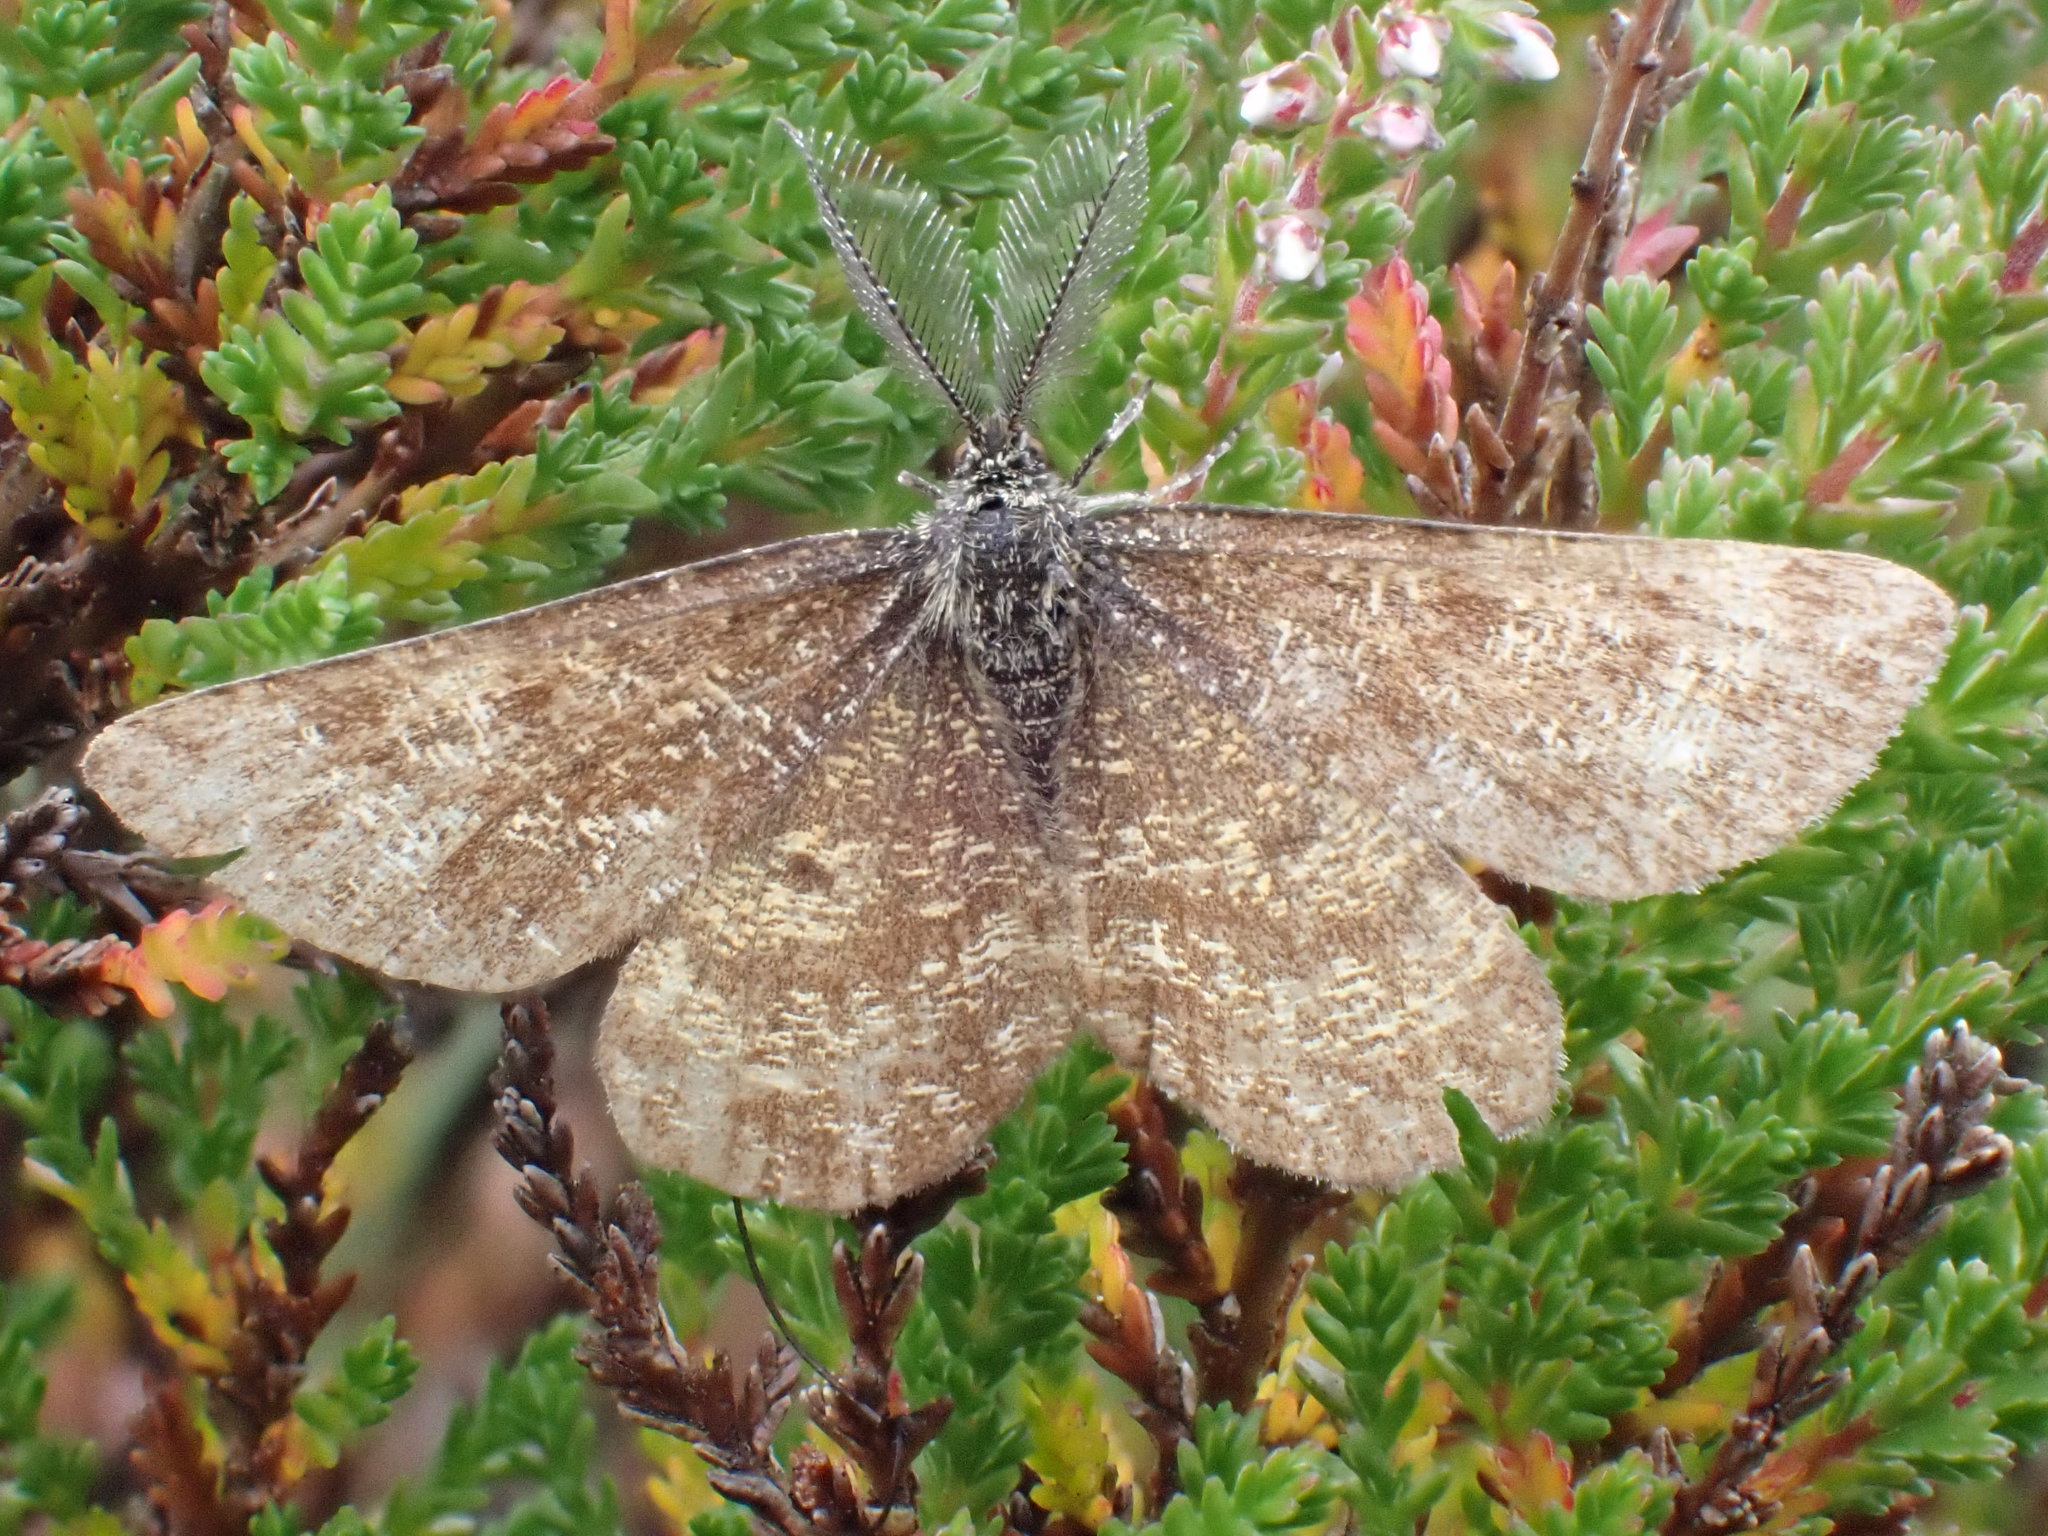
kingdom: Animalia
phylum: Arthropoda
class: Insecta
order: Lepidoptera
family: Geometridae
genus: Ematurga
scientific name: Ematurga atomaria
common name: Common heath
